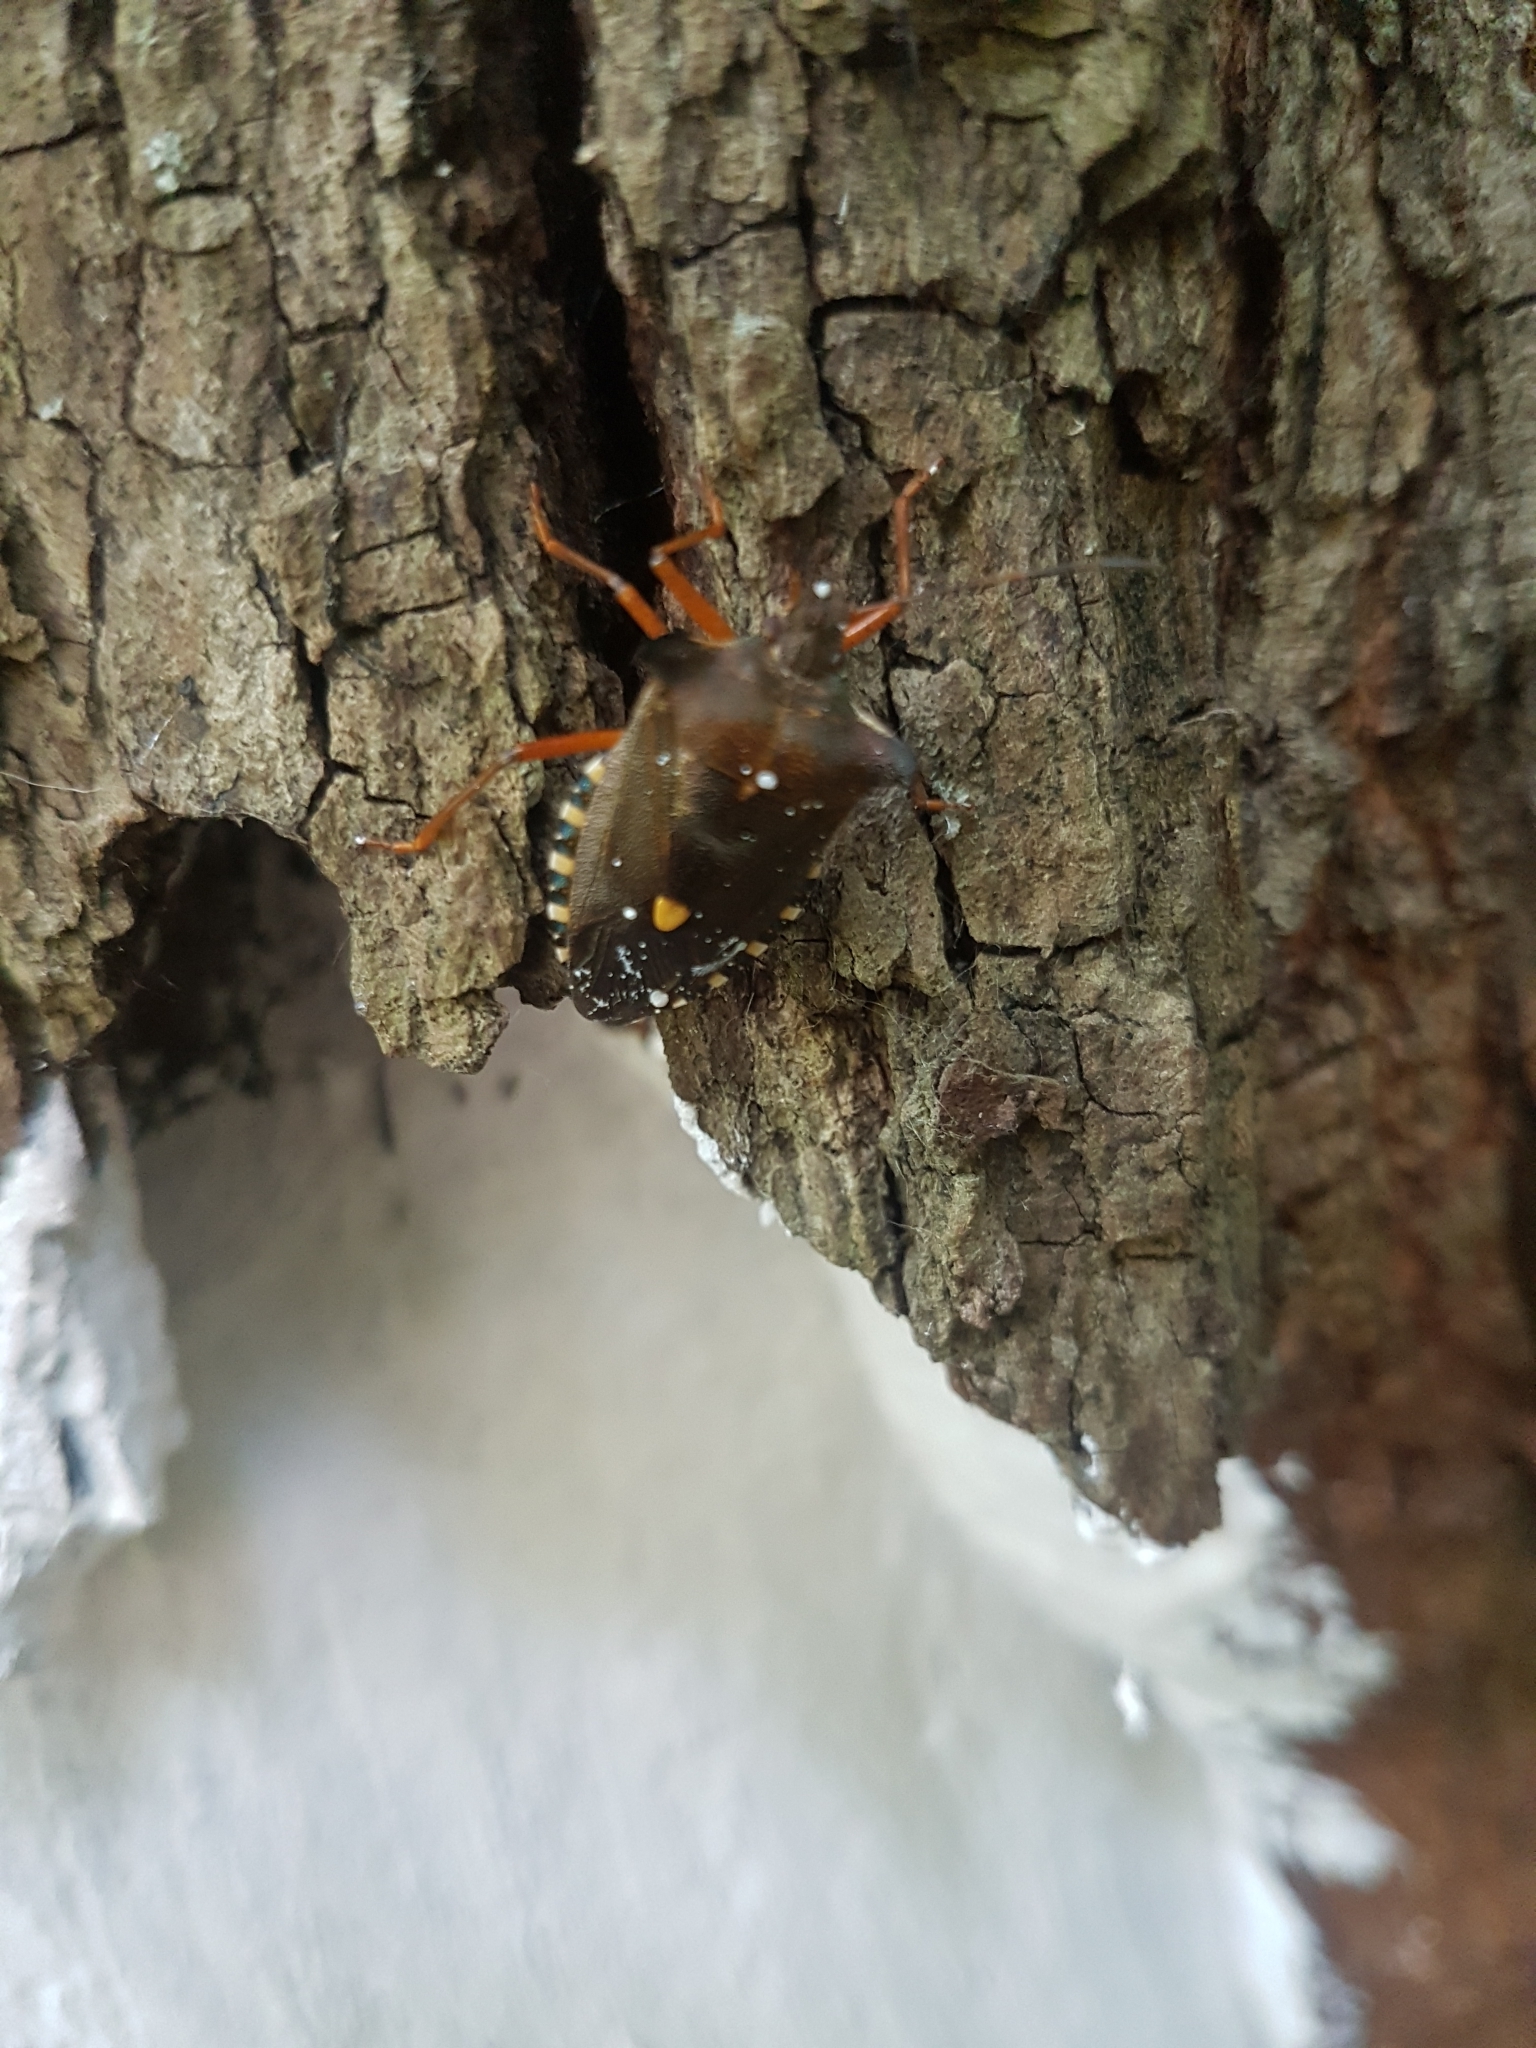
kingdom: Animalia
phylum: Arthropoda
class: Insecta
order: Hemiptera
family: Pentatomidae
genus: Pentatoma
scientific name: Pentatoma rufipes
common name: Forest bug
